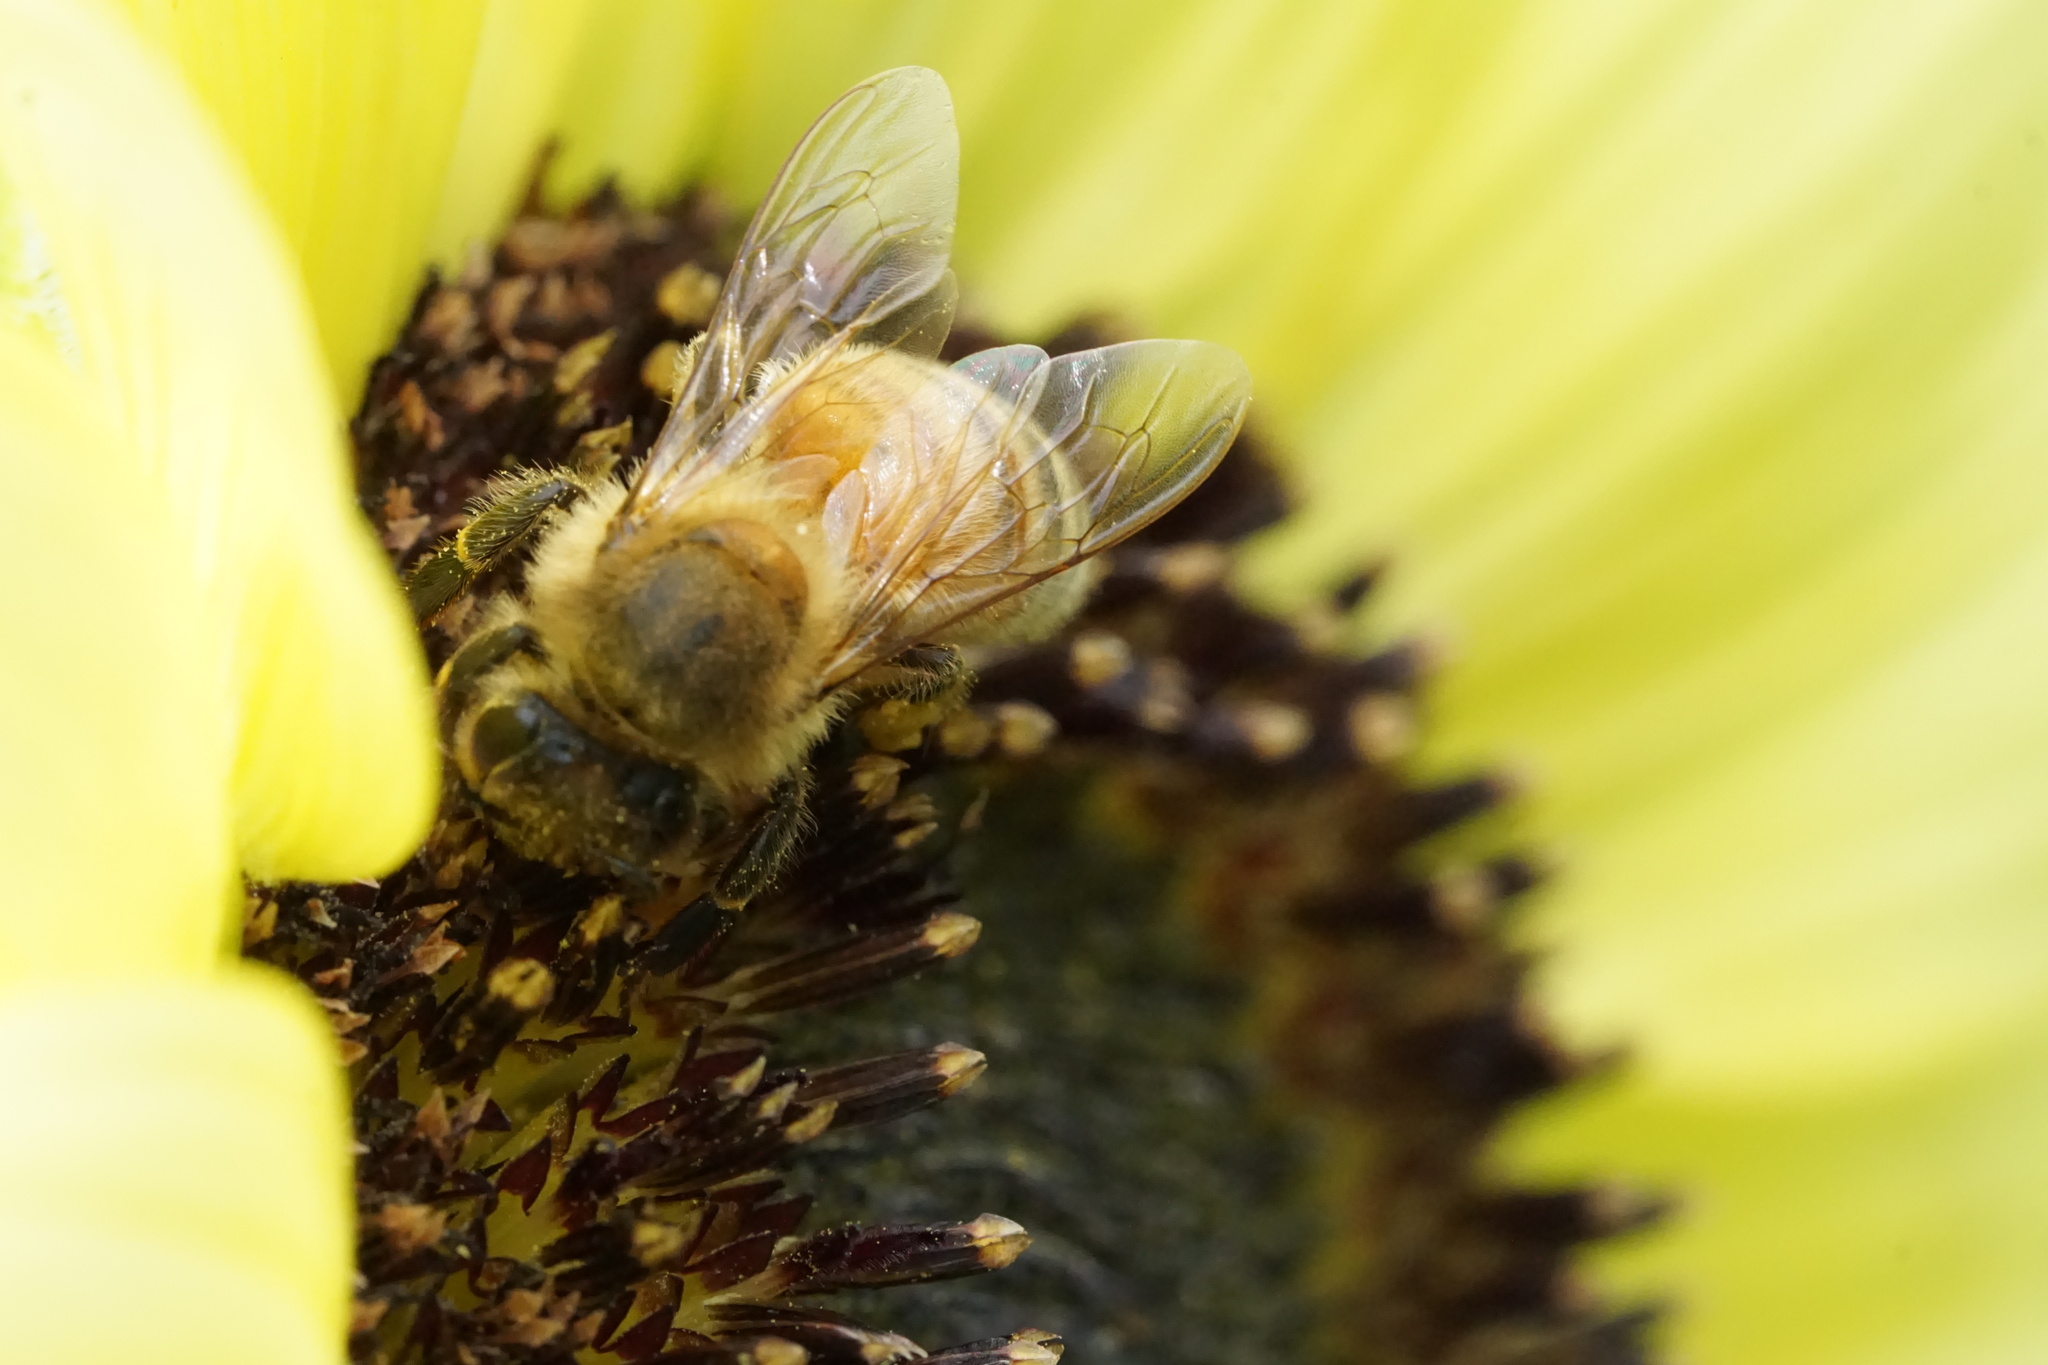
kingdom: Animalia
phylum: Arthropoda
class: Insecta
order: Hymenoptera
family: Apidae
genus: Apis
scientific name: Apis mellifera
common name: Honey bee
